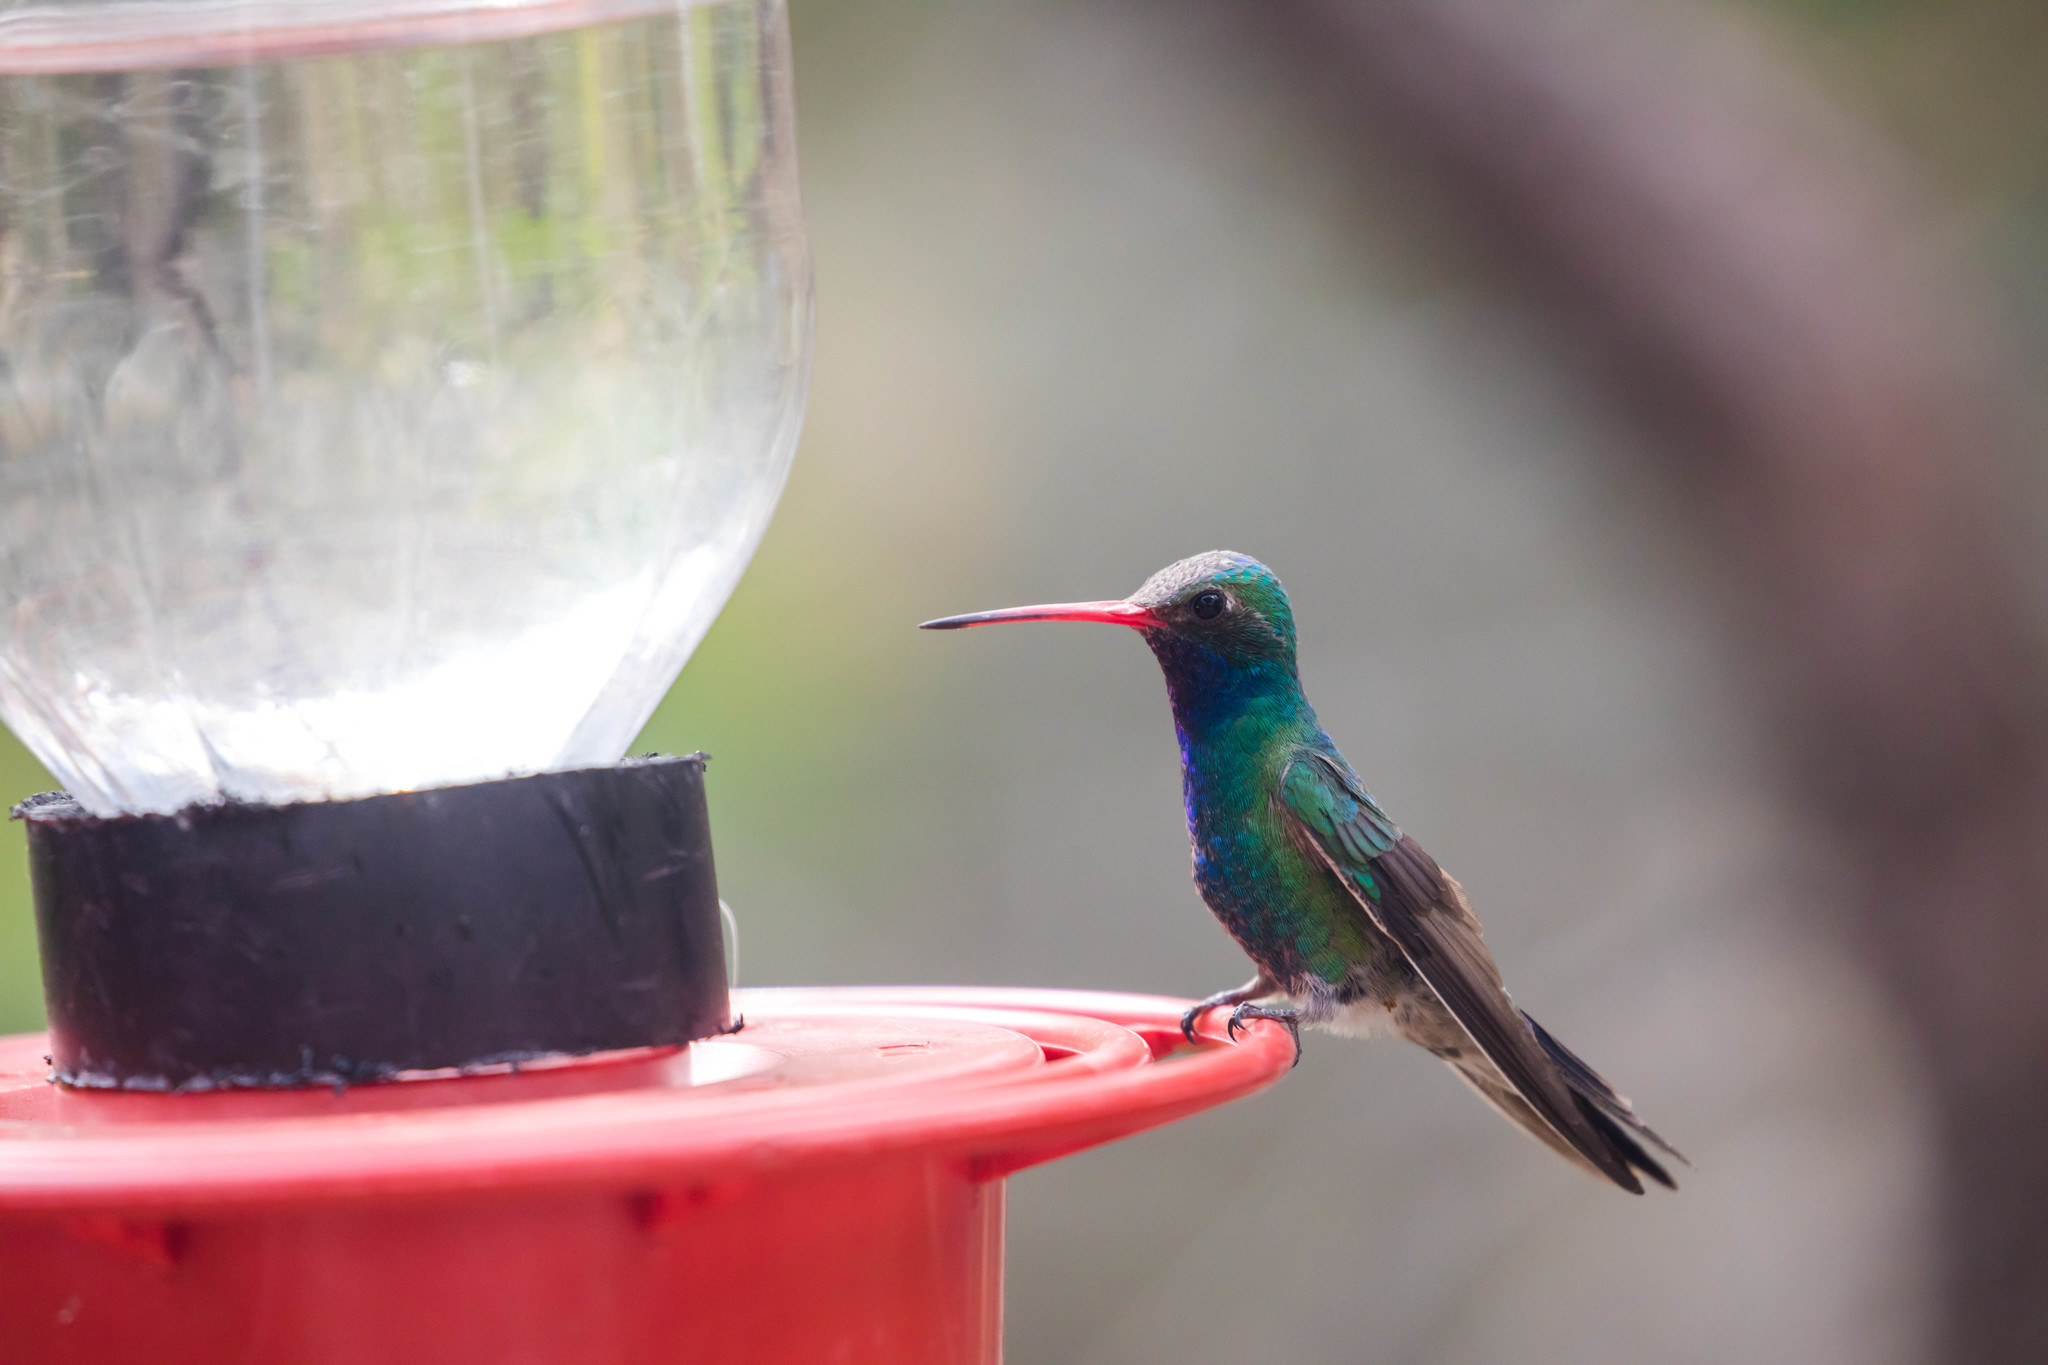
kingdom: Animalia
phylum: Chordata
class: Aves
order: Apodiformes
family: Trochilidae
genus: Cynanthus
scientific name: Cynanthus latirostris
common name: Broad-billed hummingbird
